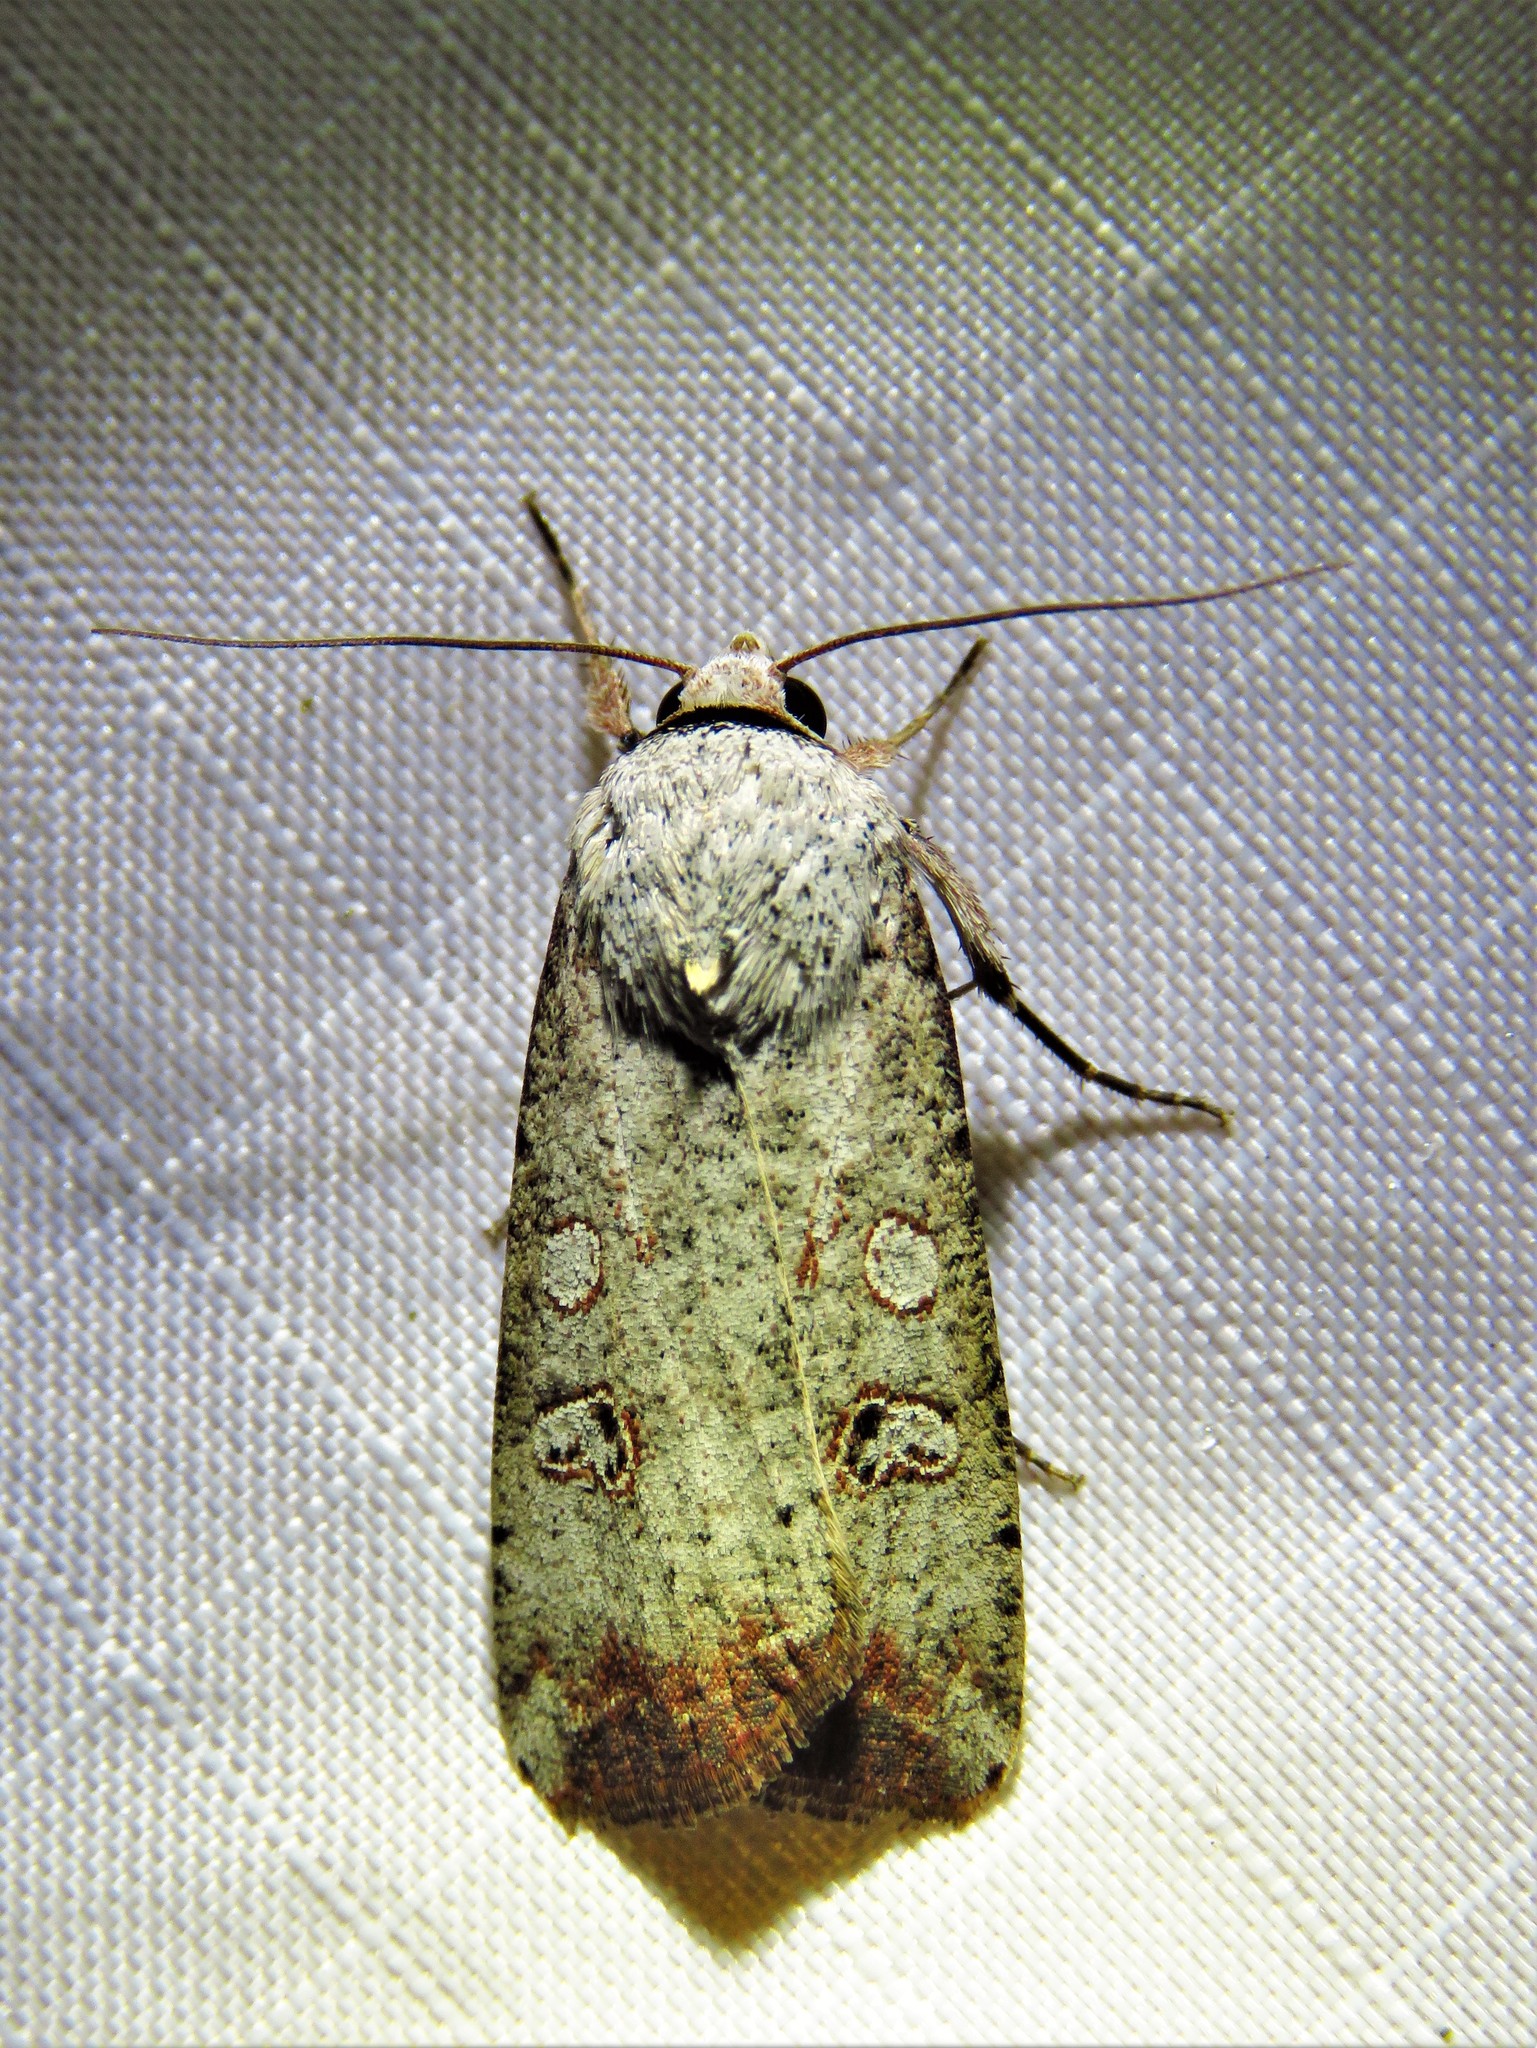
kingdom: Animalia
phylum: Arthropoda
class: Insecta
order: Lepidoptera
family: Noctuidae
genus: Anicla
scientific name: Anicla infecta
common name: Green cutworm
